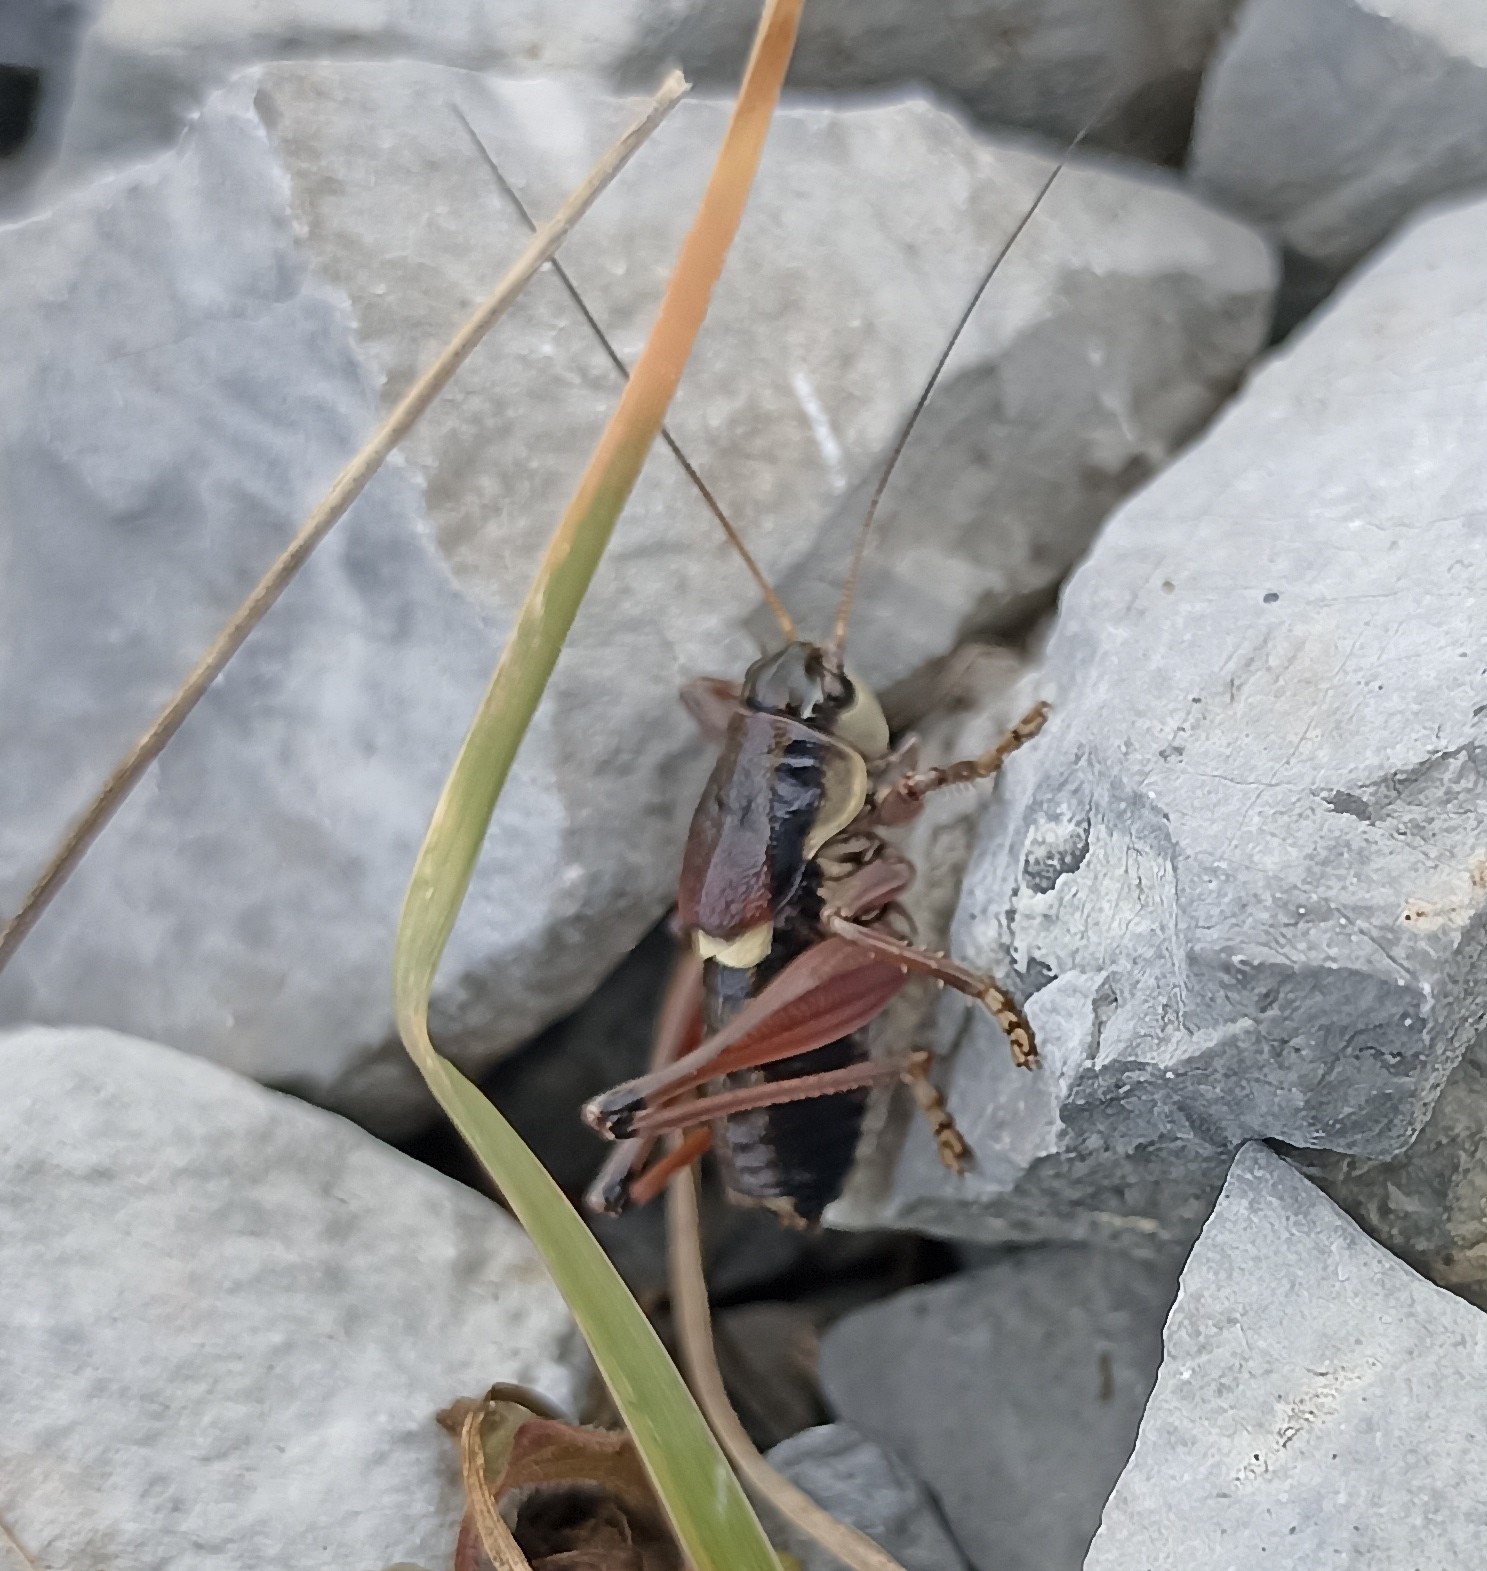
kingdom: Animalia
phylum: Arthropoda
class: Insecta
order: Orthoptera
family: Tettigoniidae
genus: Anonconotus
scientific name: Anonconotus ghilianii
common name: Ghiliani's alpine bush-cricket
